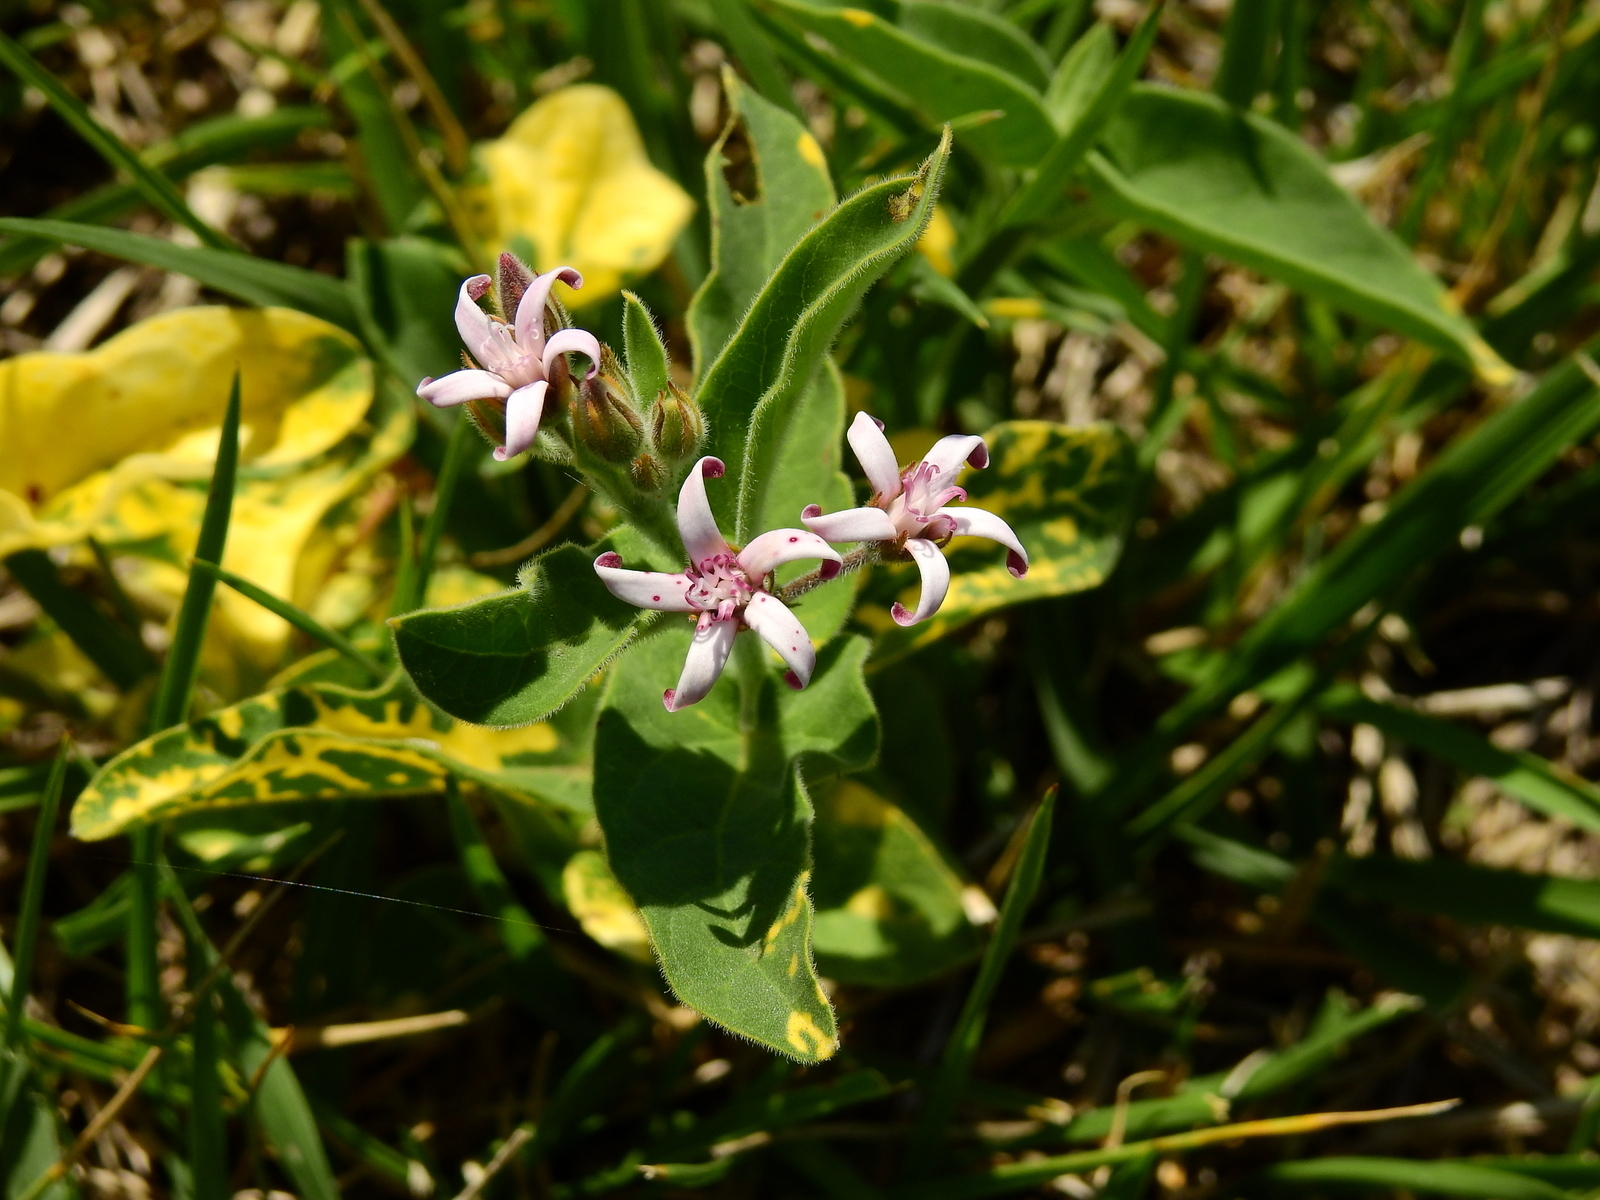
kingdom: Plantae
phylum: Tracheophyta
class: Magnoliopsida
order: Gentianales
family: Apocynaceae
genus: Oxypetalum
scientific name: Oxypetalum solanoides
